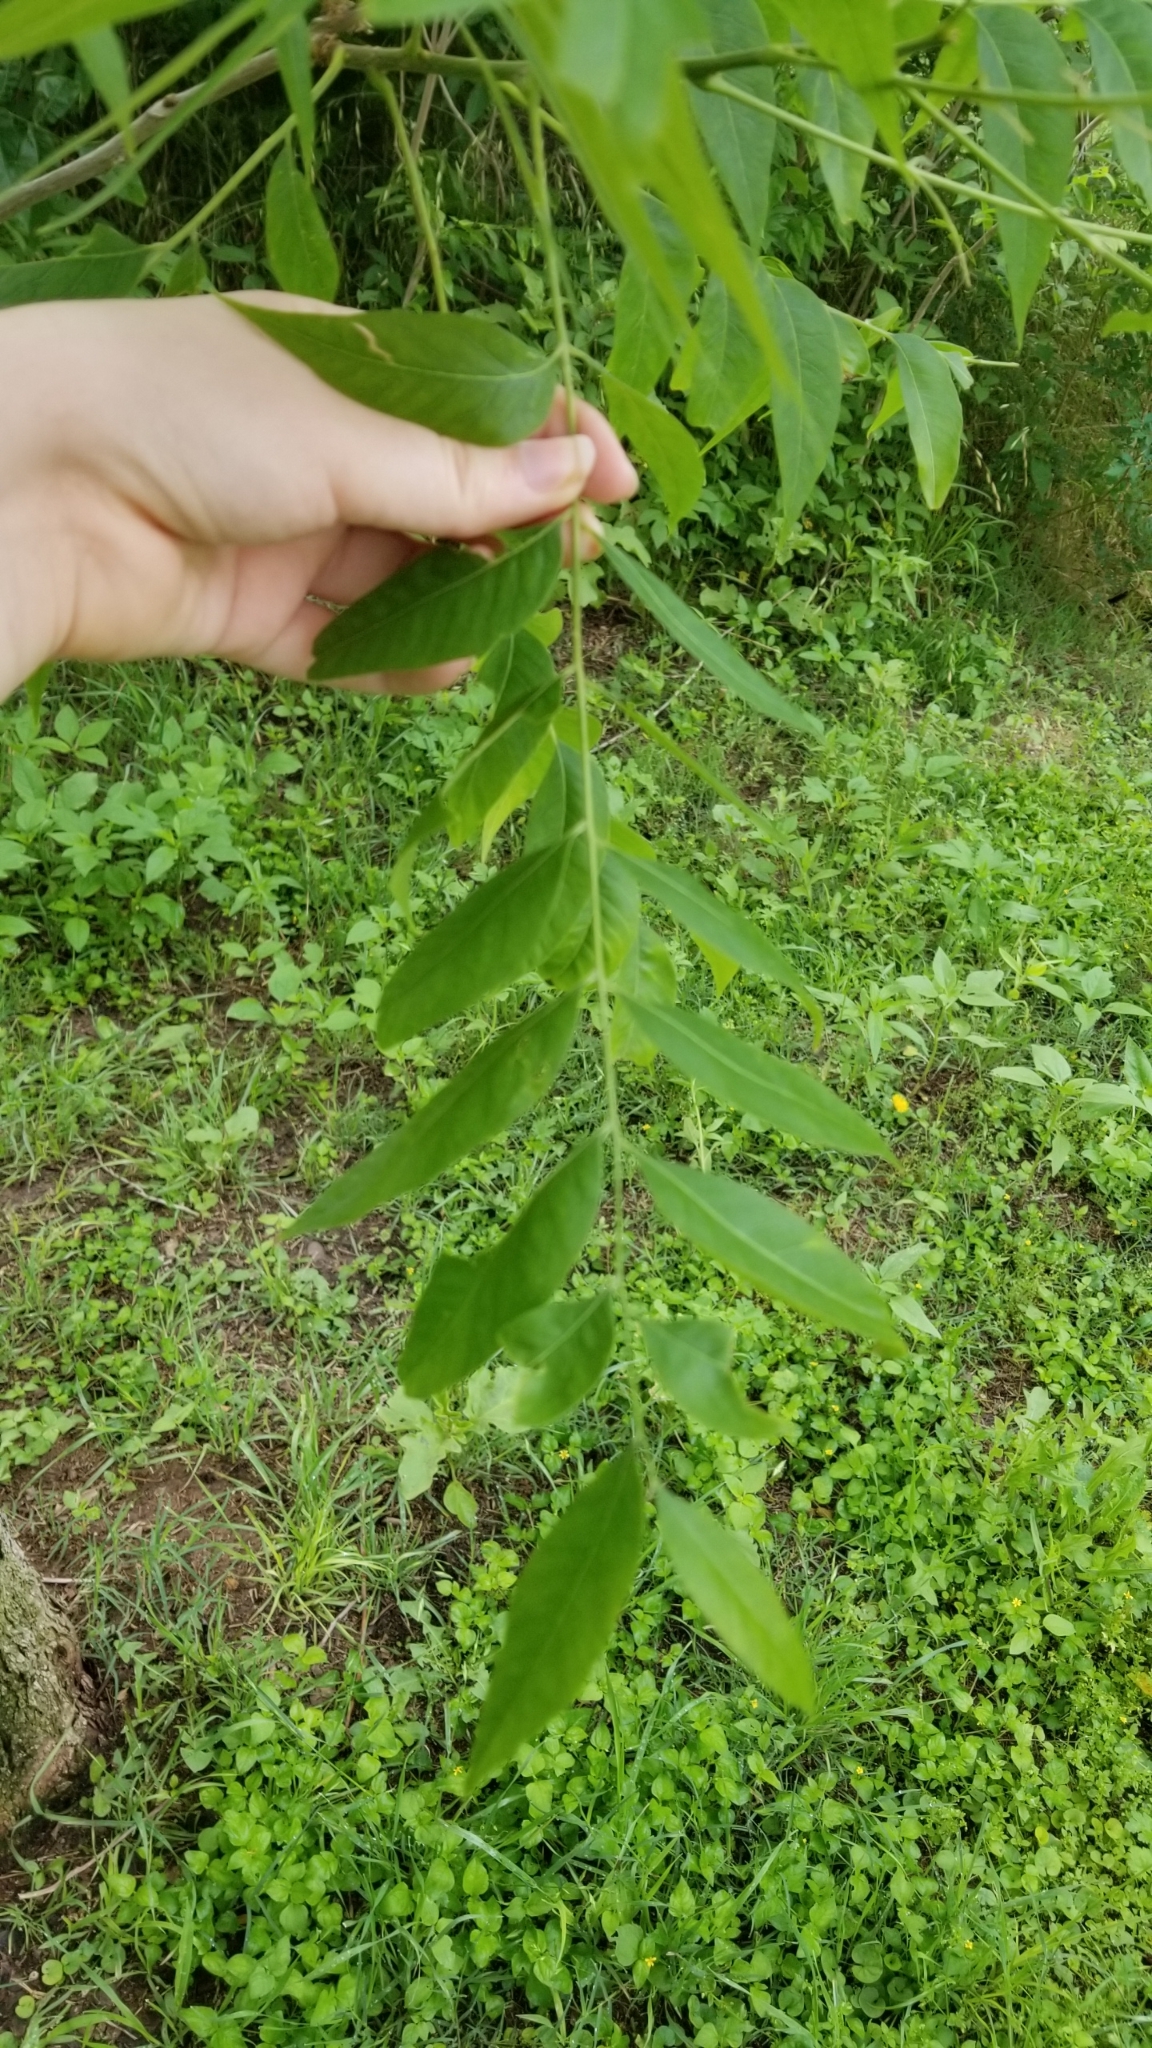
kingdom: Plantae
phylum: Tracheophyta
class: Magnoliopsida
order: Sapindales
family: Sapindaceae
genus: Sapindus
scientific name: Sapindus drummondii
